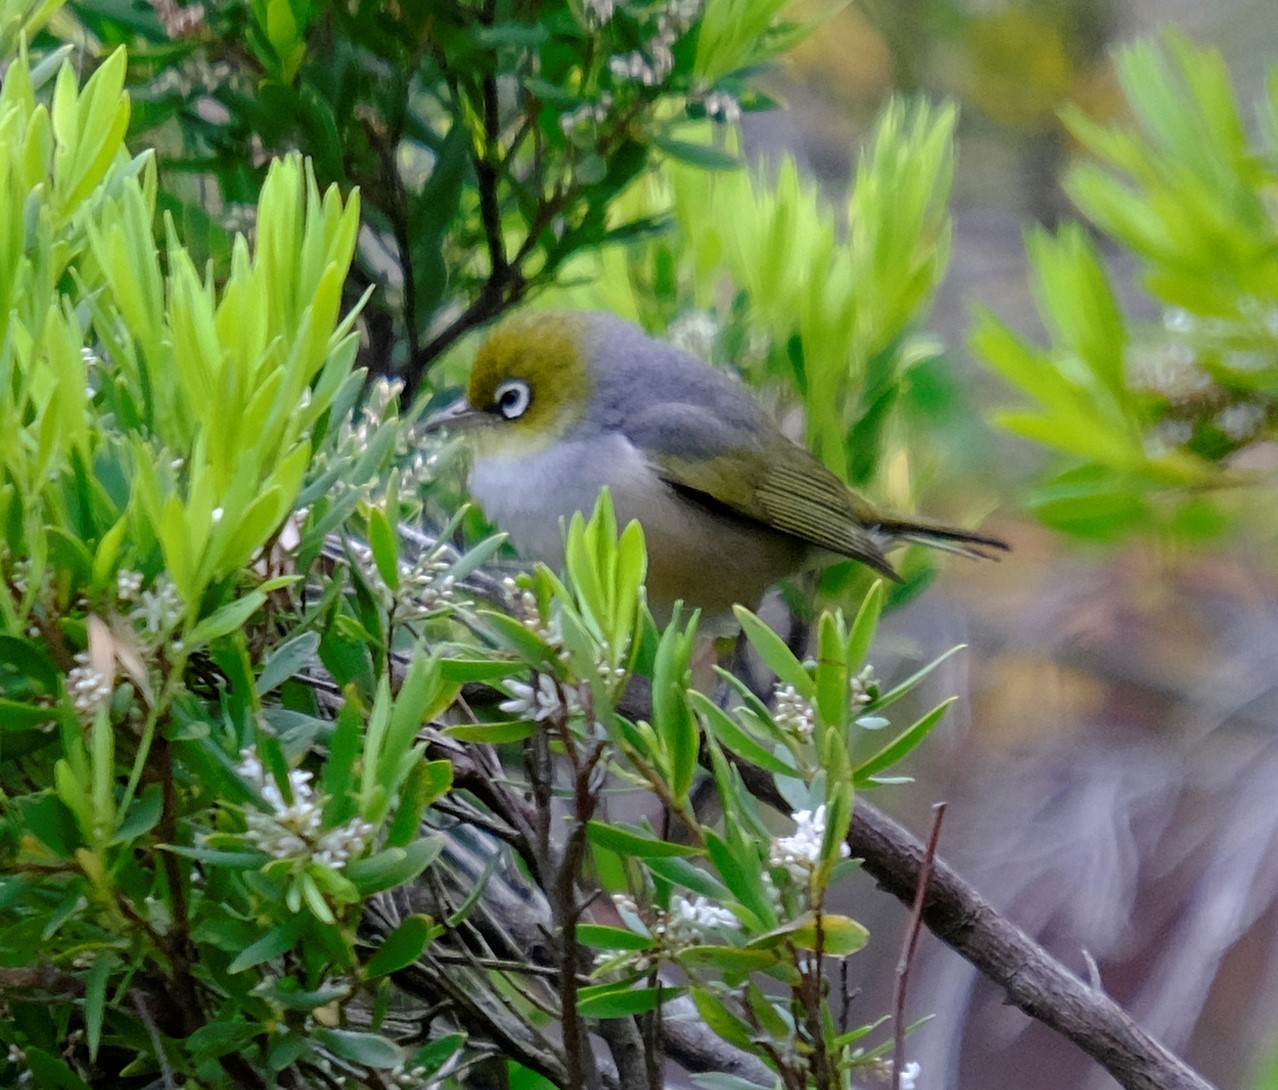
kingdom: Animalia
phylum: Chordata
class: Aves
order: Passeriformes
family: Zosteropidae
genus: Zosterops
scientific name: Zosterops lateralis
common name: Silvereye
